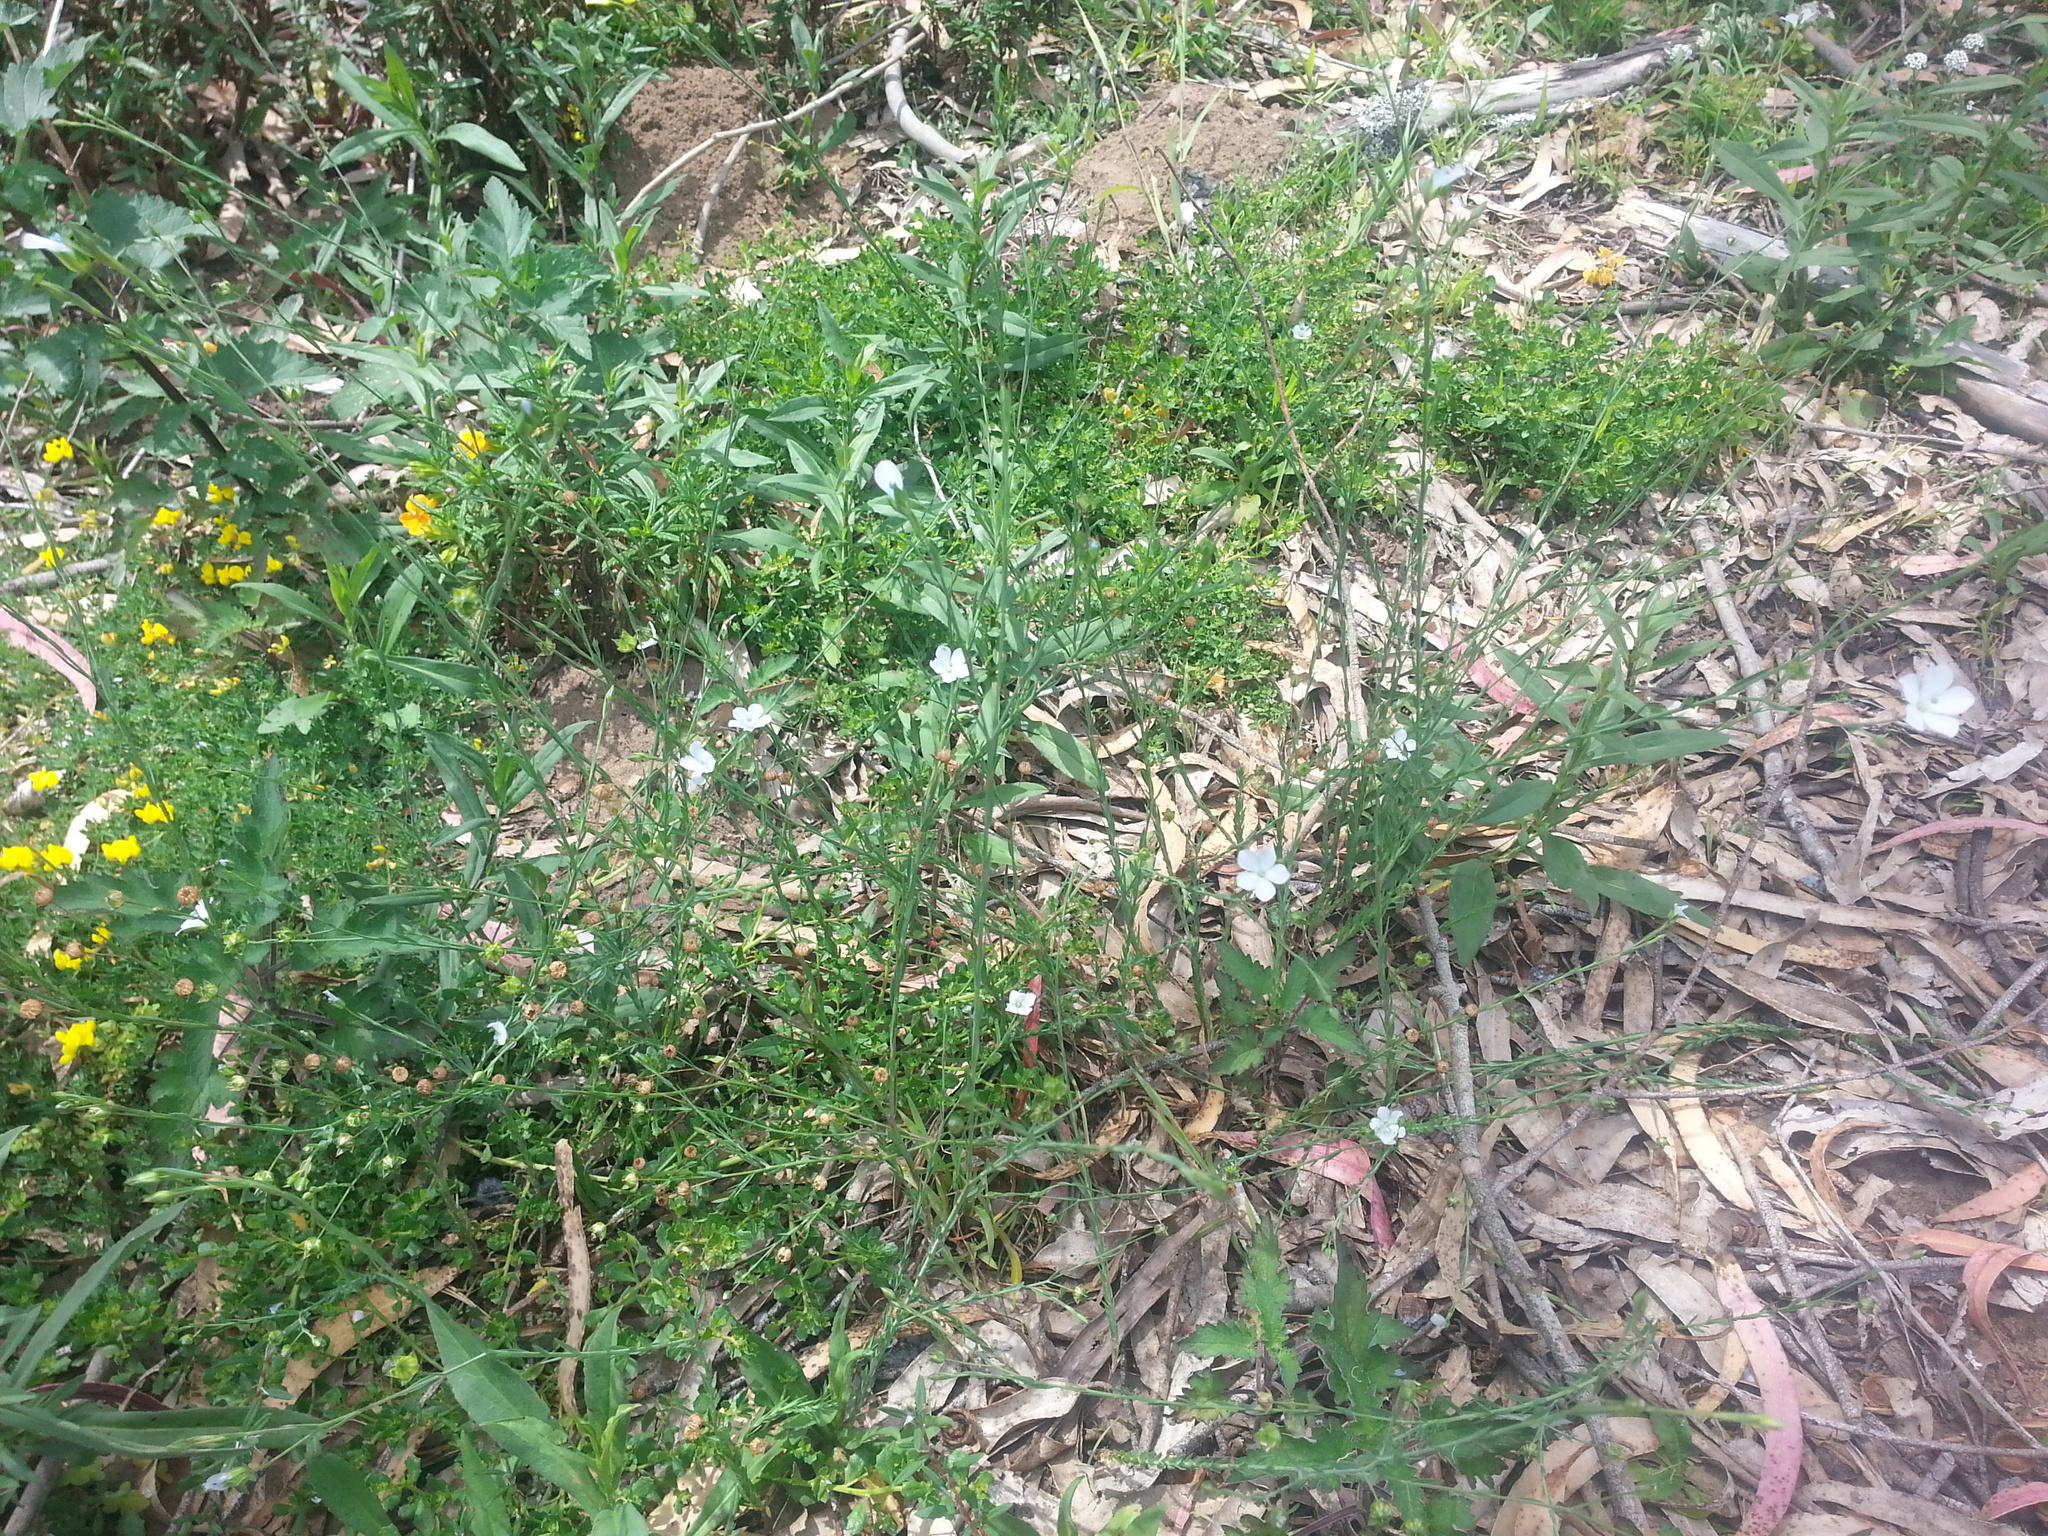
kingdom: Plantae
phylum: Tracheophyta
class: Magnoliopsida
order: Malpighiales
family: Linaceae
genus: Linum
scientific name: Linum bienne
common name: Pale flax
